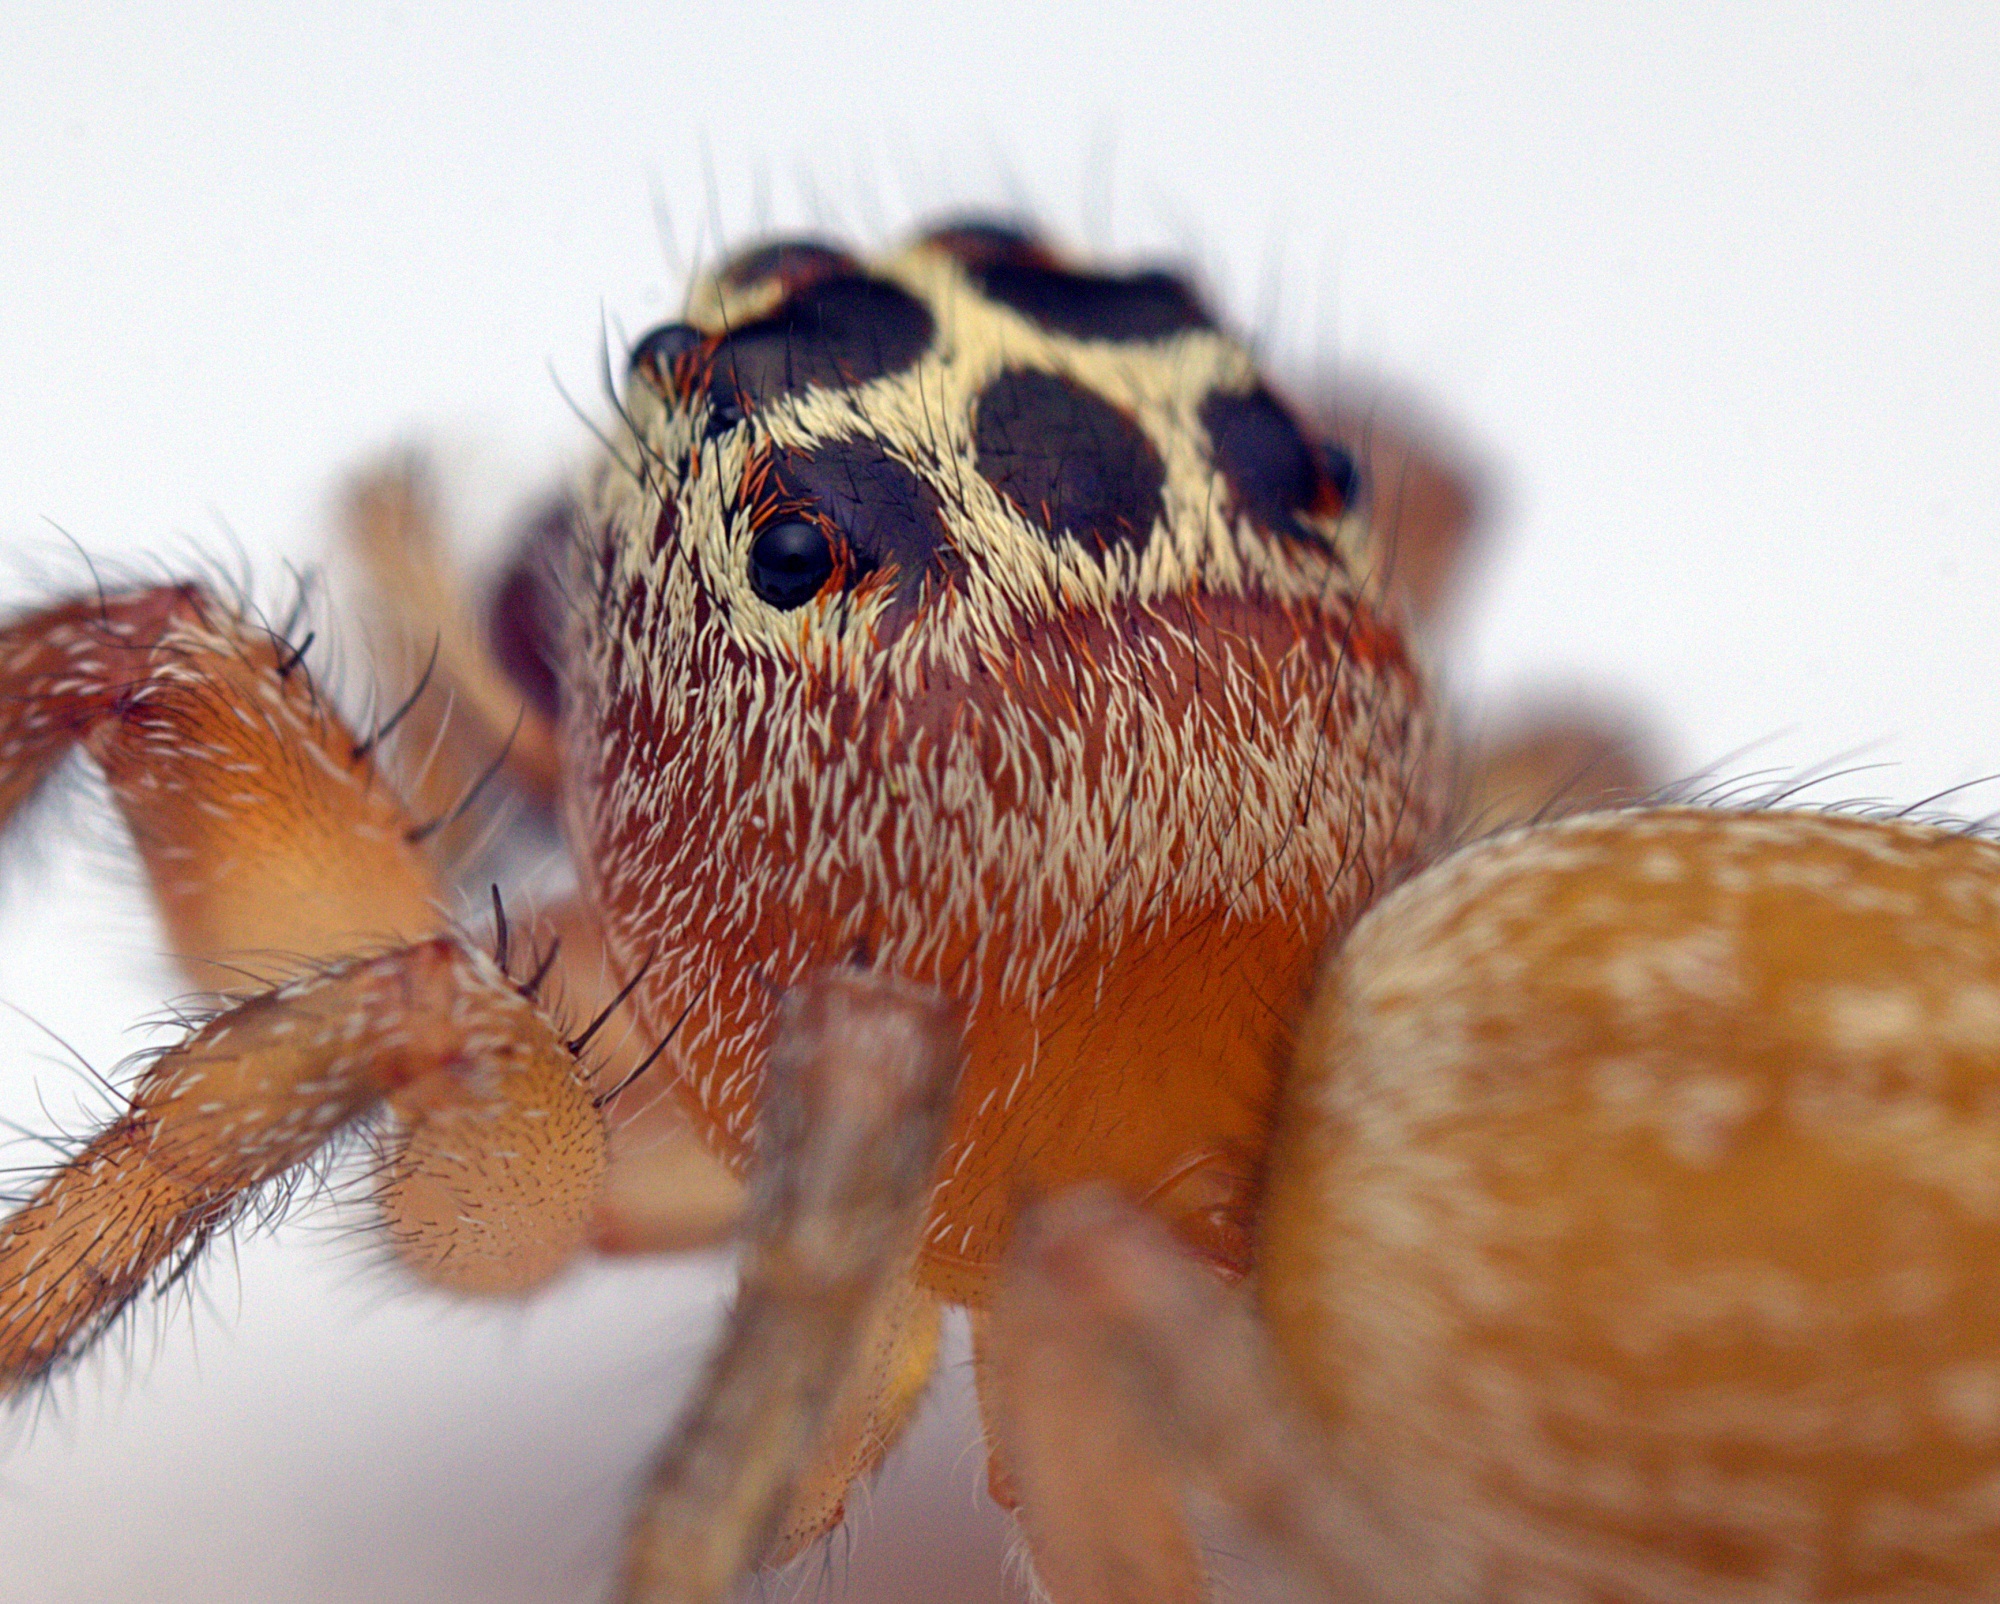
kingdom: Animalia
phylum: Arthropoda
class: Arachnida
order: Araneae
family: Salticidae
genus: Opisthoncus
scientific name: Opisthoncus polyphemus
